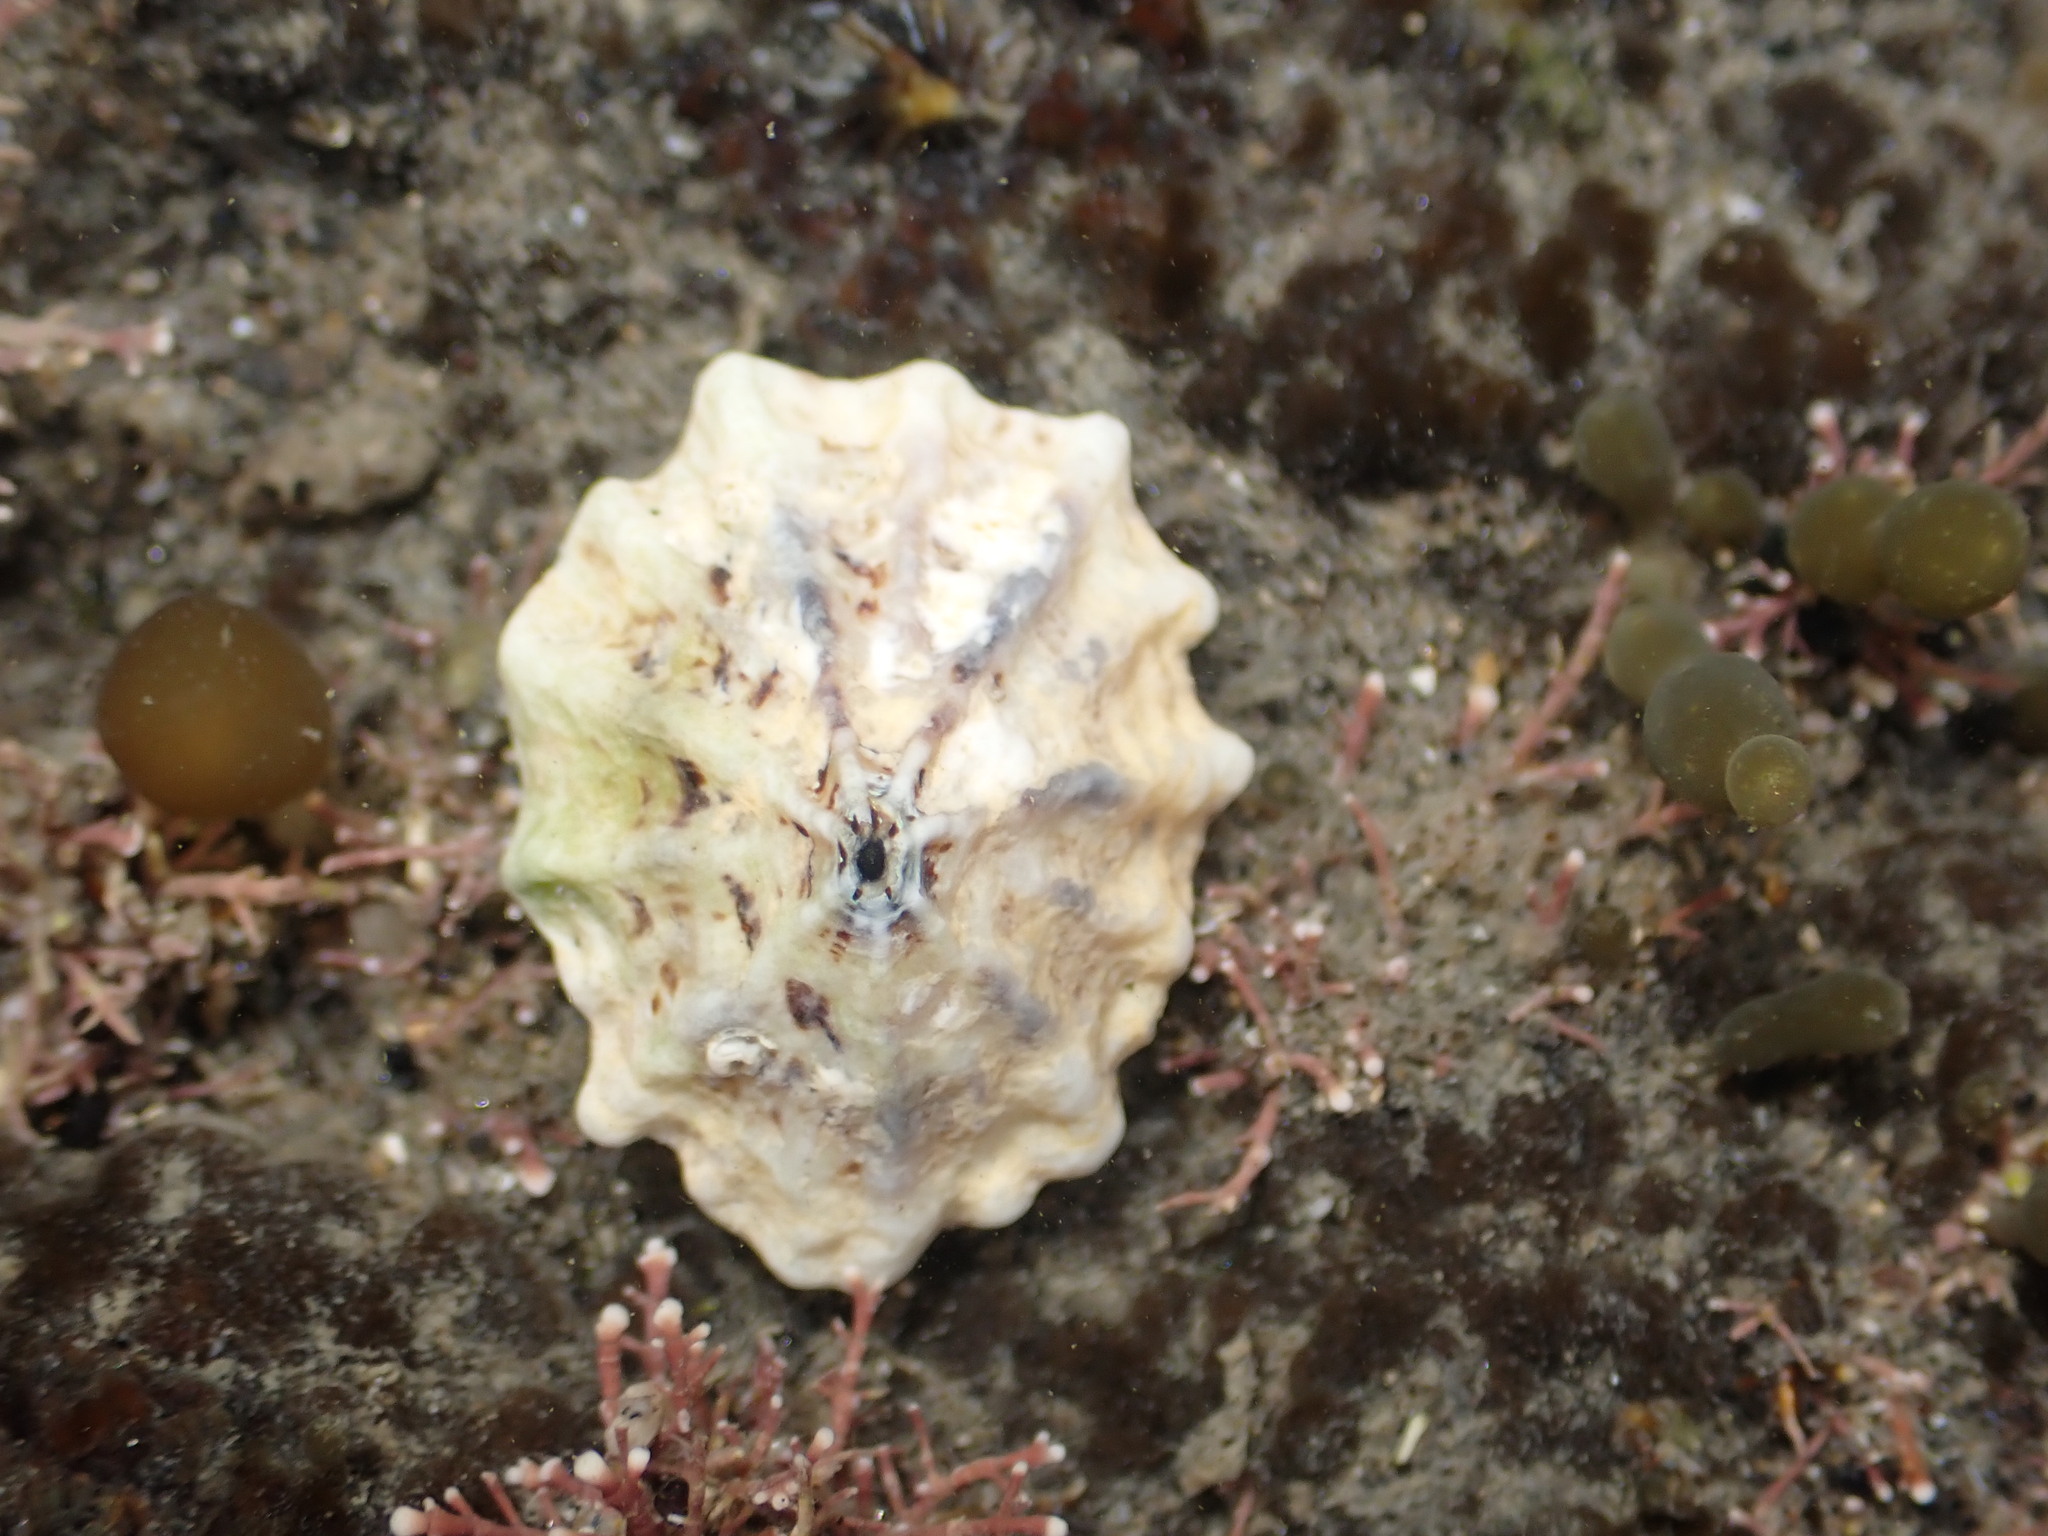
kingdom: Animalia
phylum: Mollusca
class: Gastropoda
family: Lottiidae
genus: Patelloida
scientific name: Patelloida corticata
